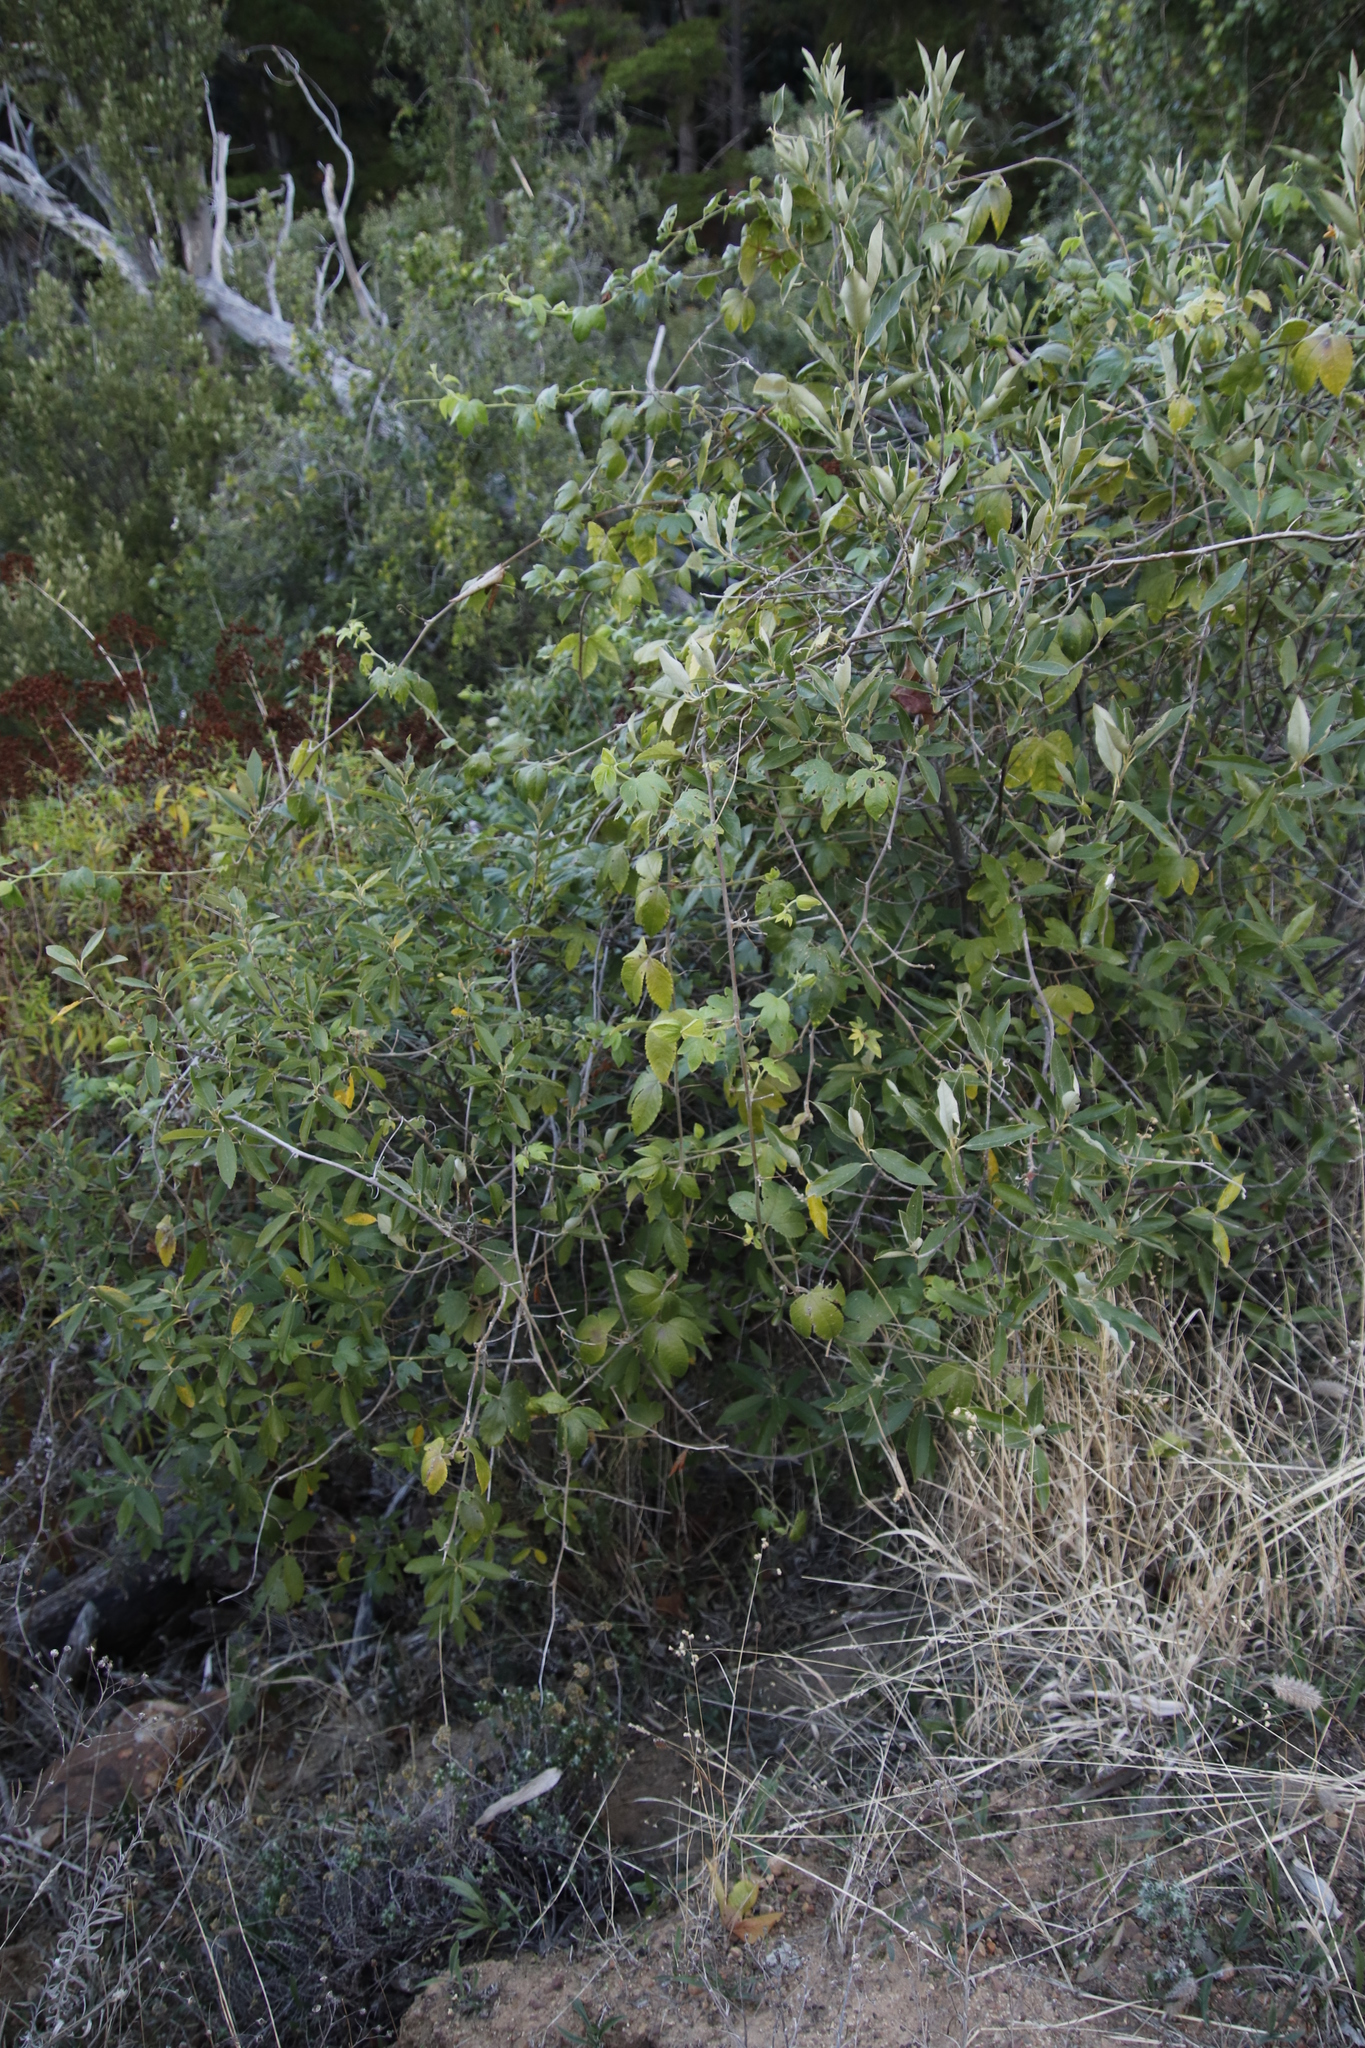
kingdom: Plantae
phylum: Tracheophyta
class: Magnoliopsida
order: Gentianales
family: Apocynaceae
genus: Cynanchum
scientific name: Cynanchum obtusifolium
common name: Monkey-rope
